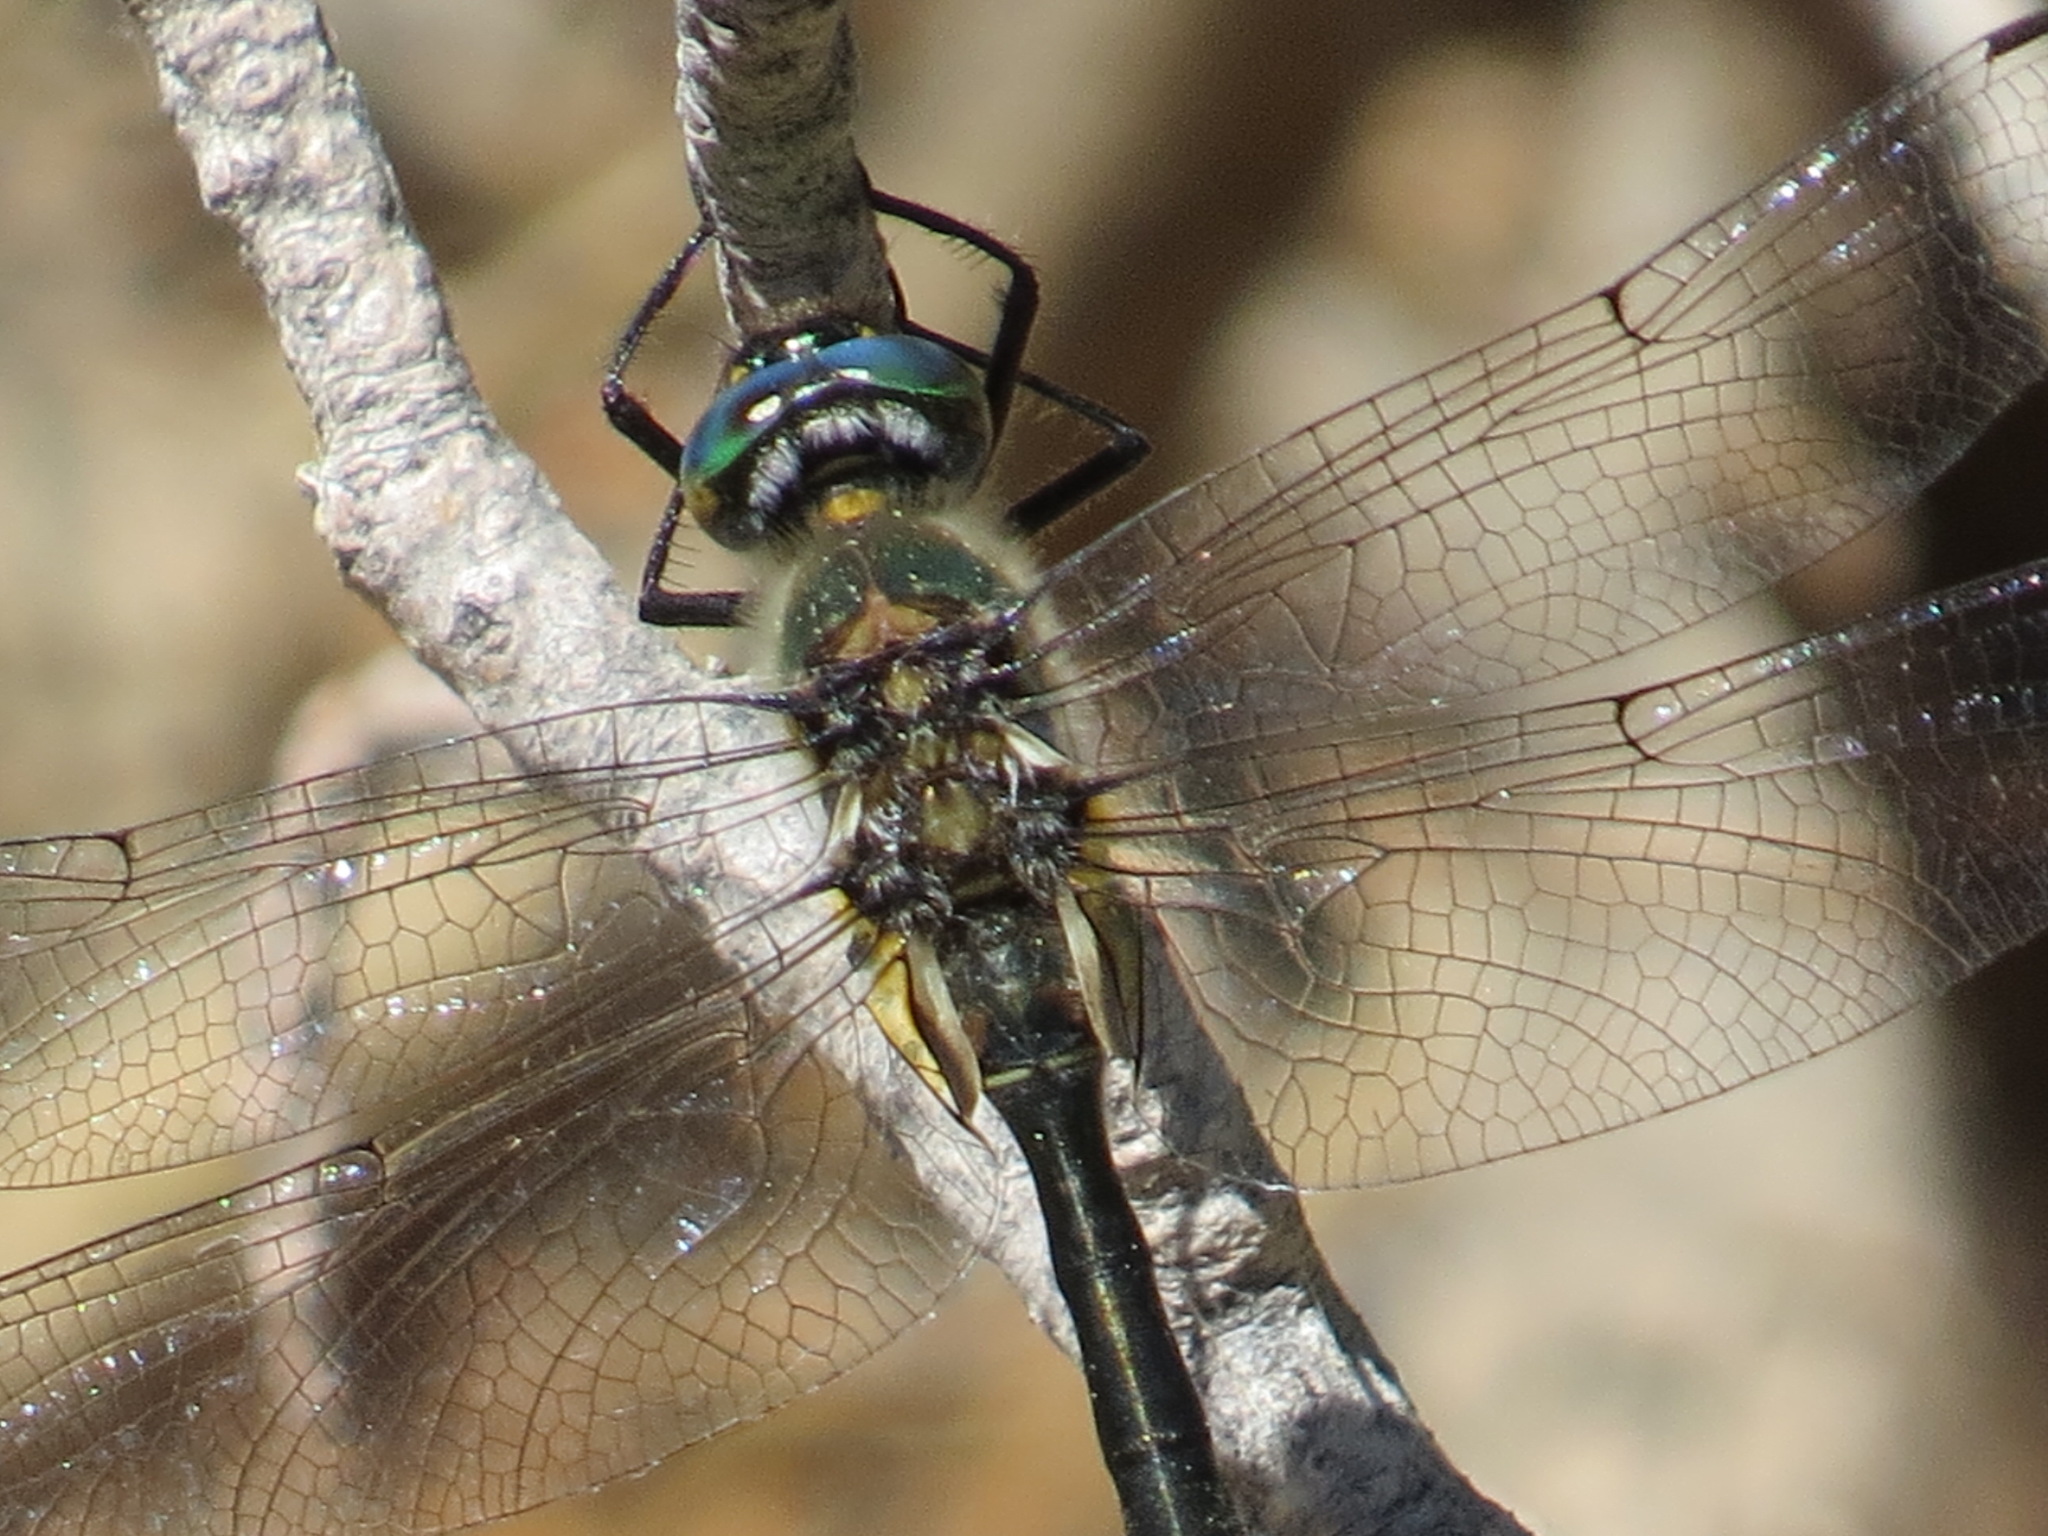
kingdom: Animalia
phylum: Arthropoda
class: Insecta
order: Odonata
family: Corduliidae
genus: Cordulia
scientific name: Cordulia shurtleffii
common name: American emerald
